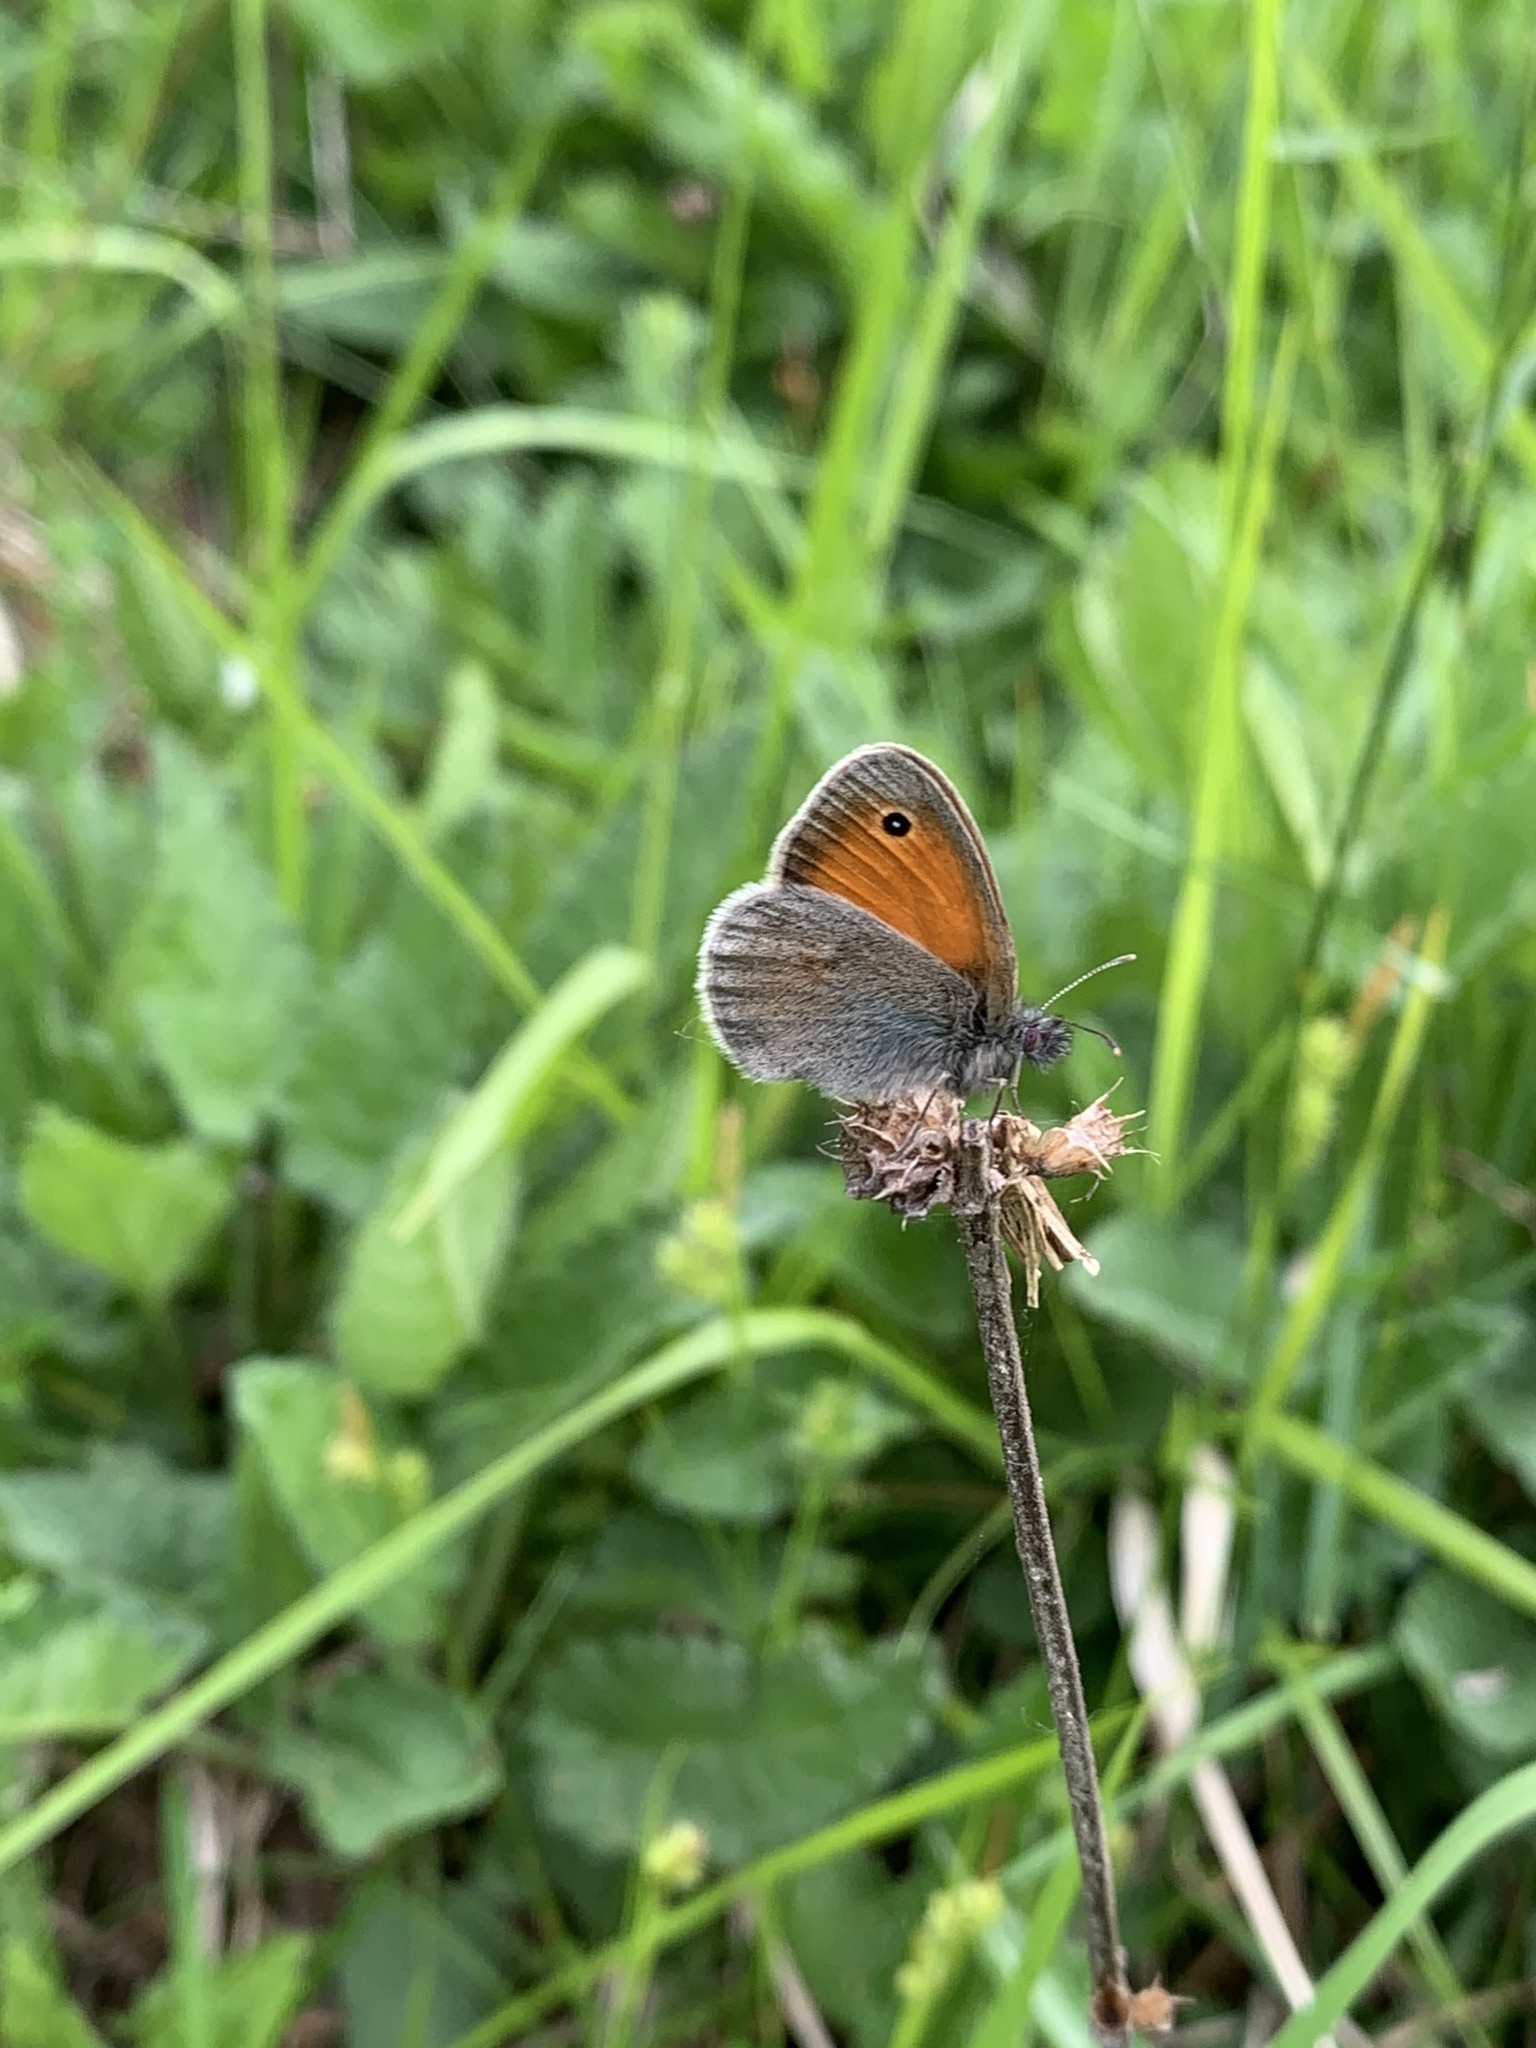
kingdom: Animalia
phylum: Arthropoda
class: Insecta
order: Lepidoptera
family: Nymphalidae
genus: Coenonympha
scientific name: Coenonympha pamphilus
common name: Small heath
